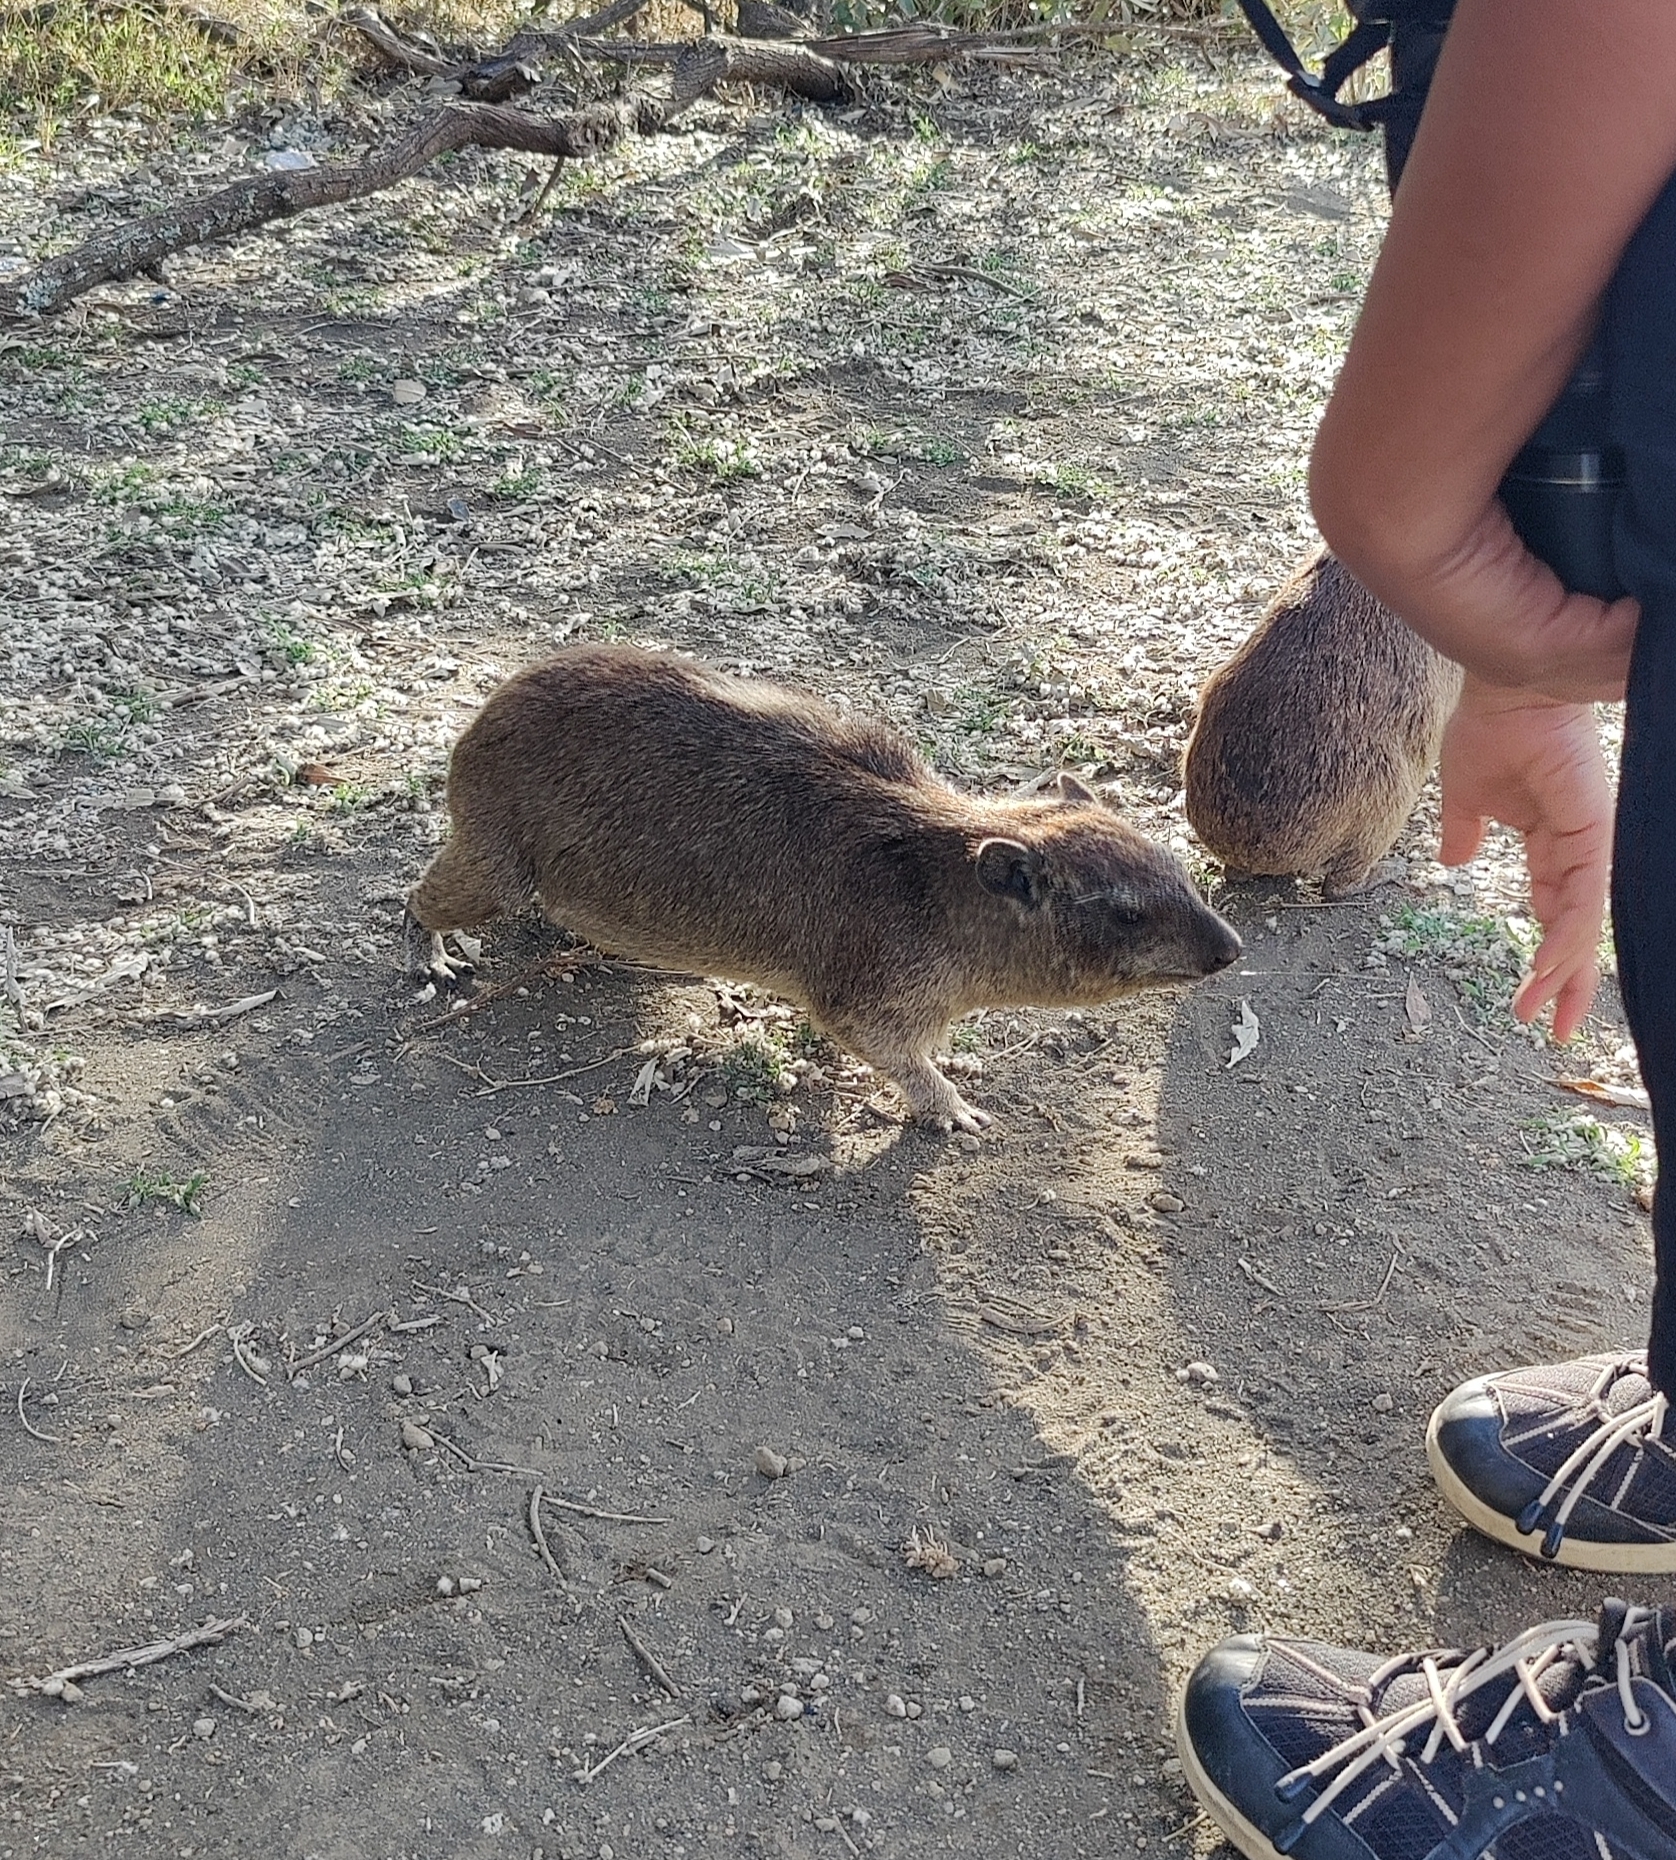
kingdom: Animalia
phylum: Chordata
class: Mammalia
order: Hyracoidea
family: Procaviidae
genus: Procavia
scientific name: Procavia capensis
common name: Rock hyrax
